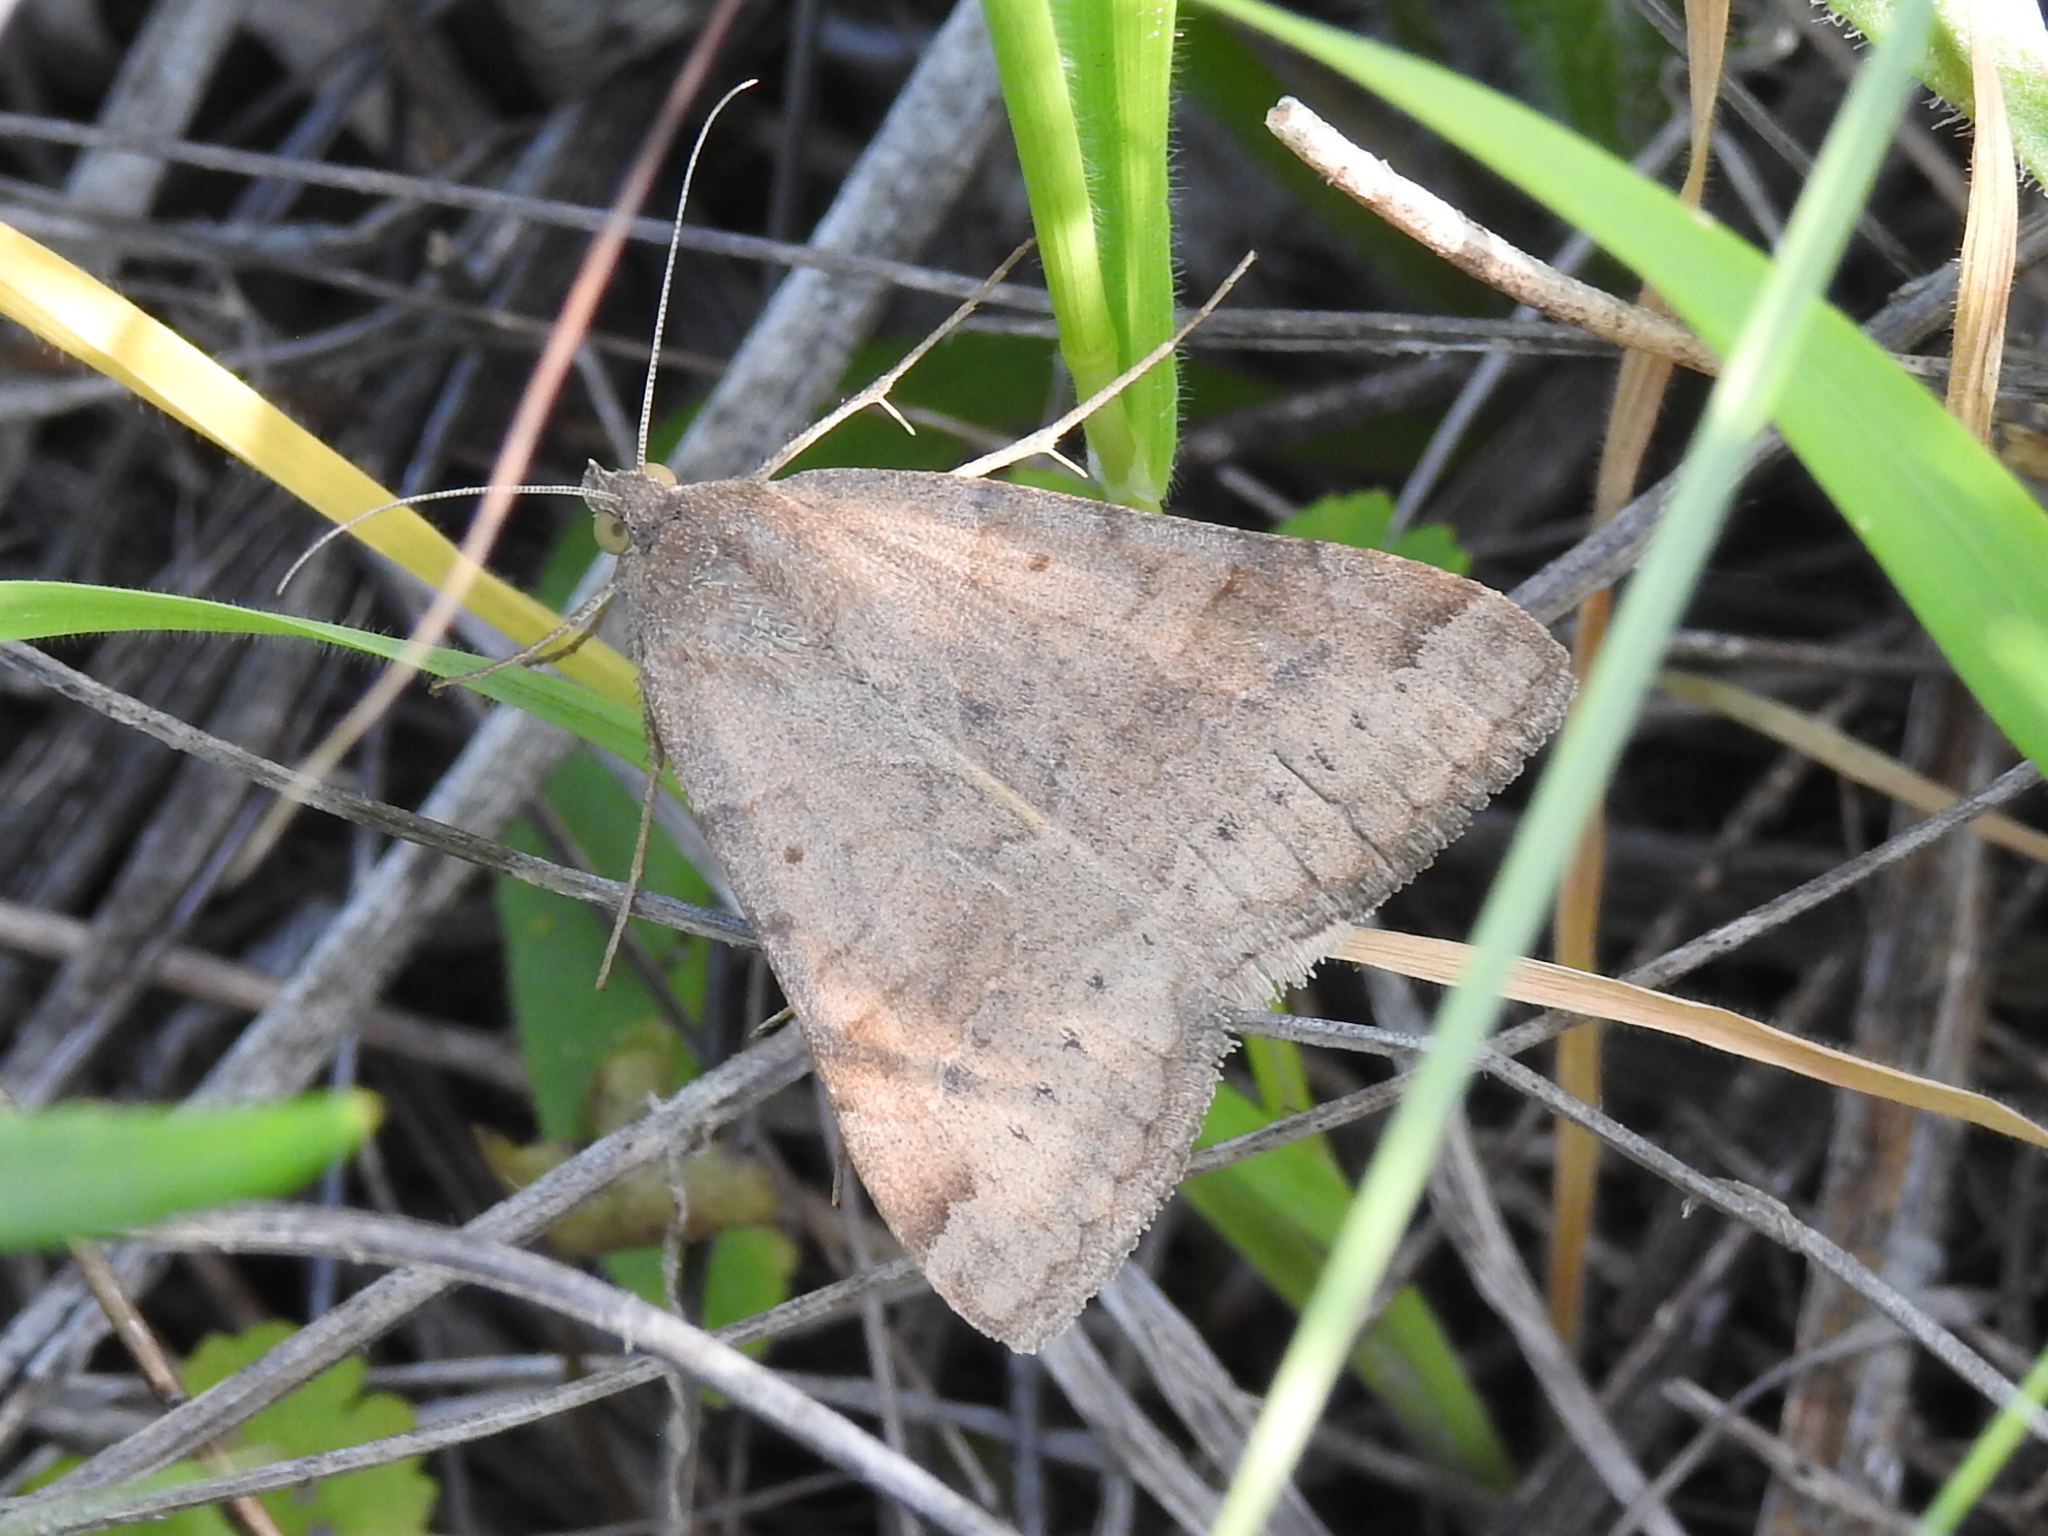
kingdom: Animalia
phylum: Arthropoda
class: Insecta
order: Lepidoptera
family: Erebidae
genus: Caenurgina
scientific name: Caenurgina erechtea
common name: Forage looper moth
